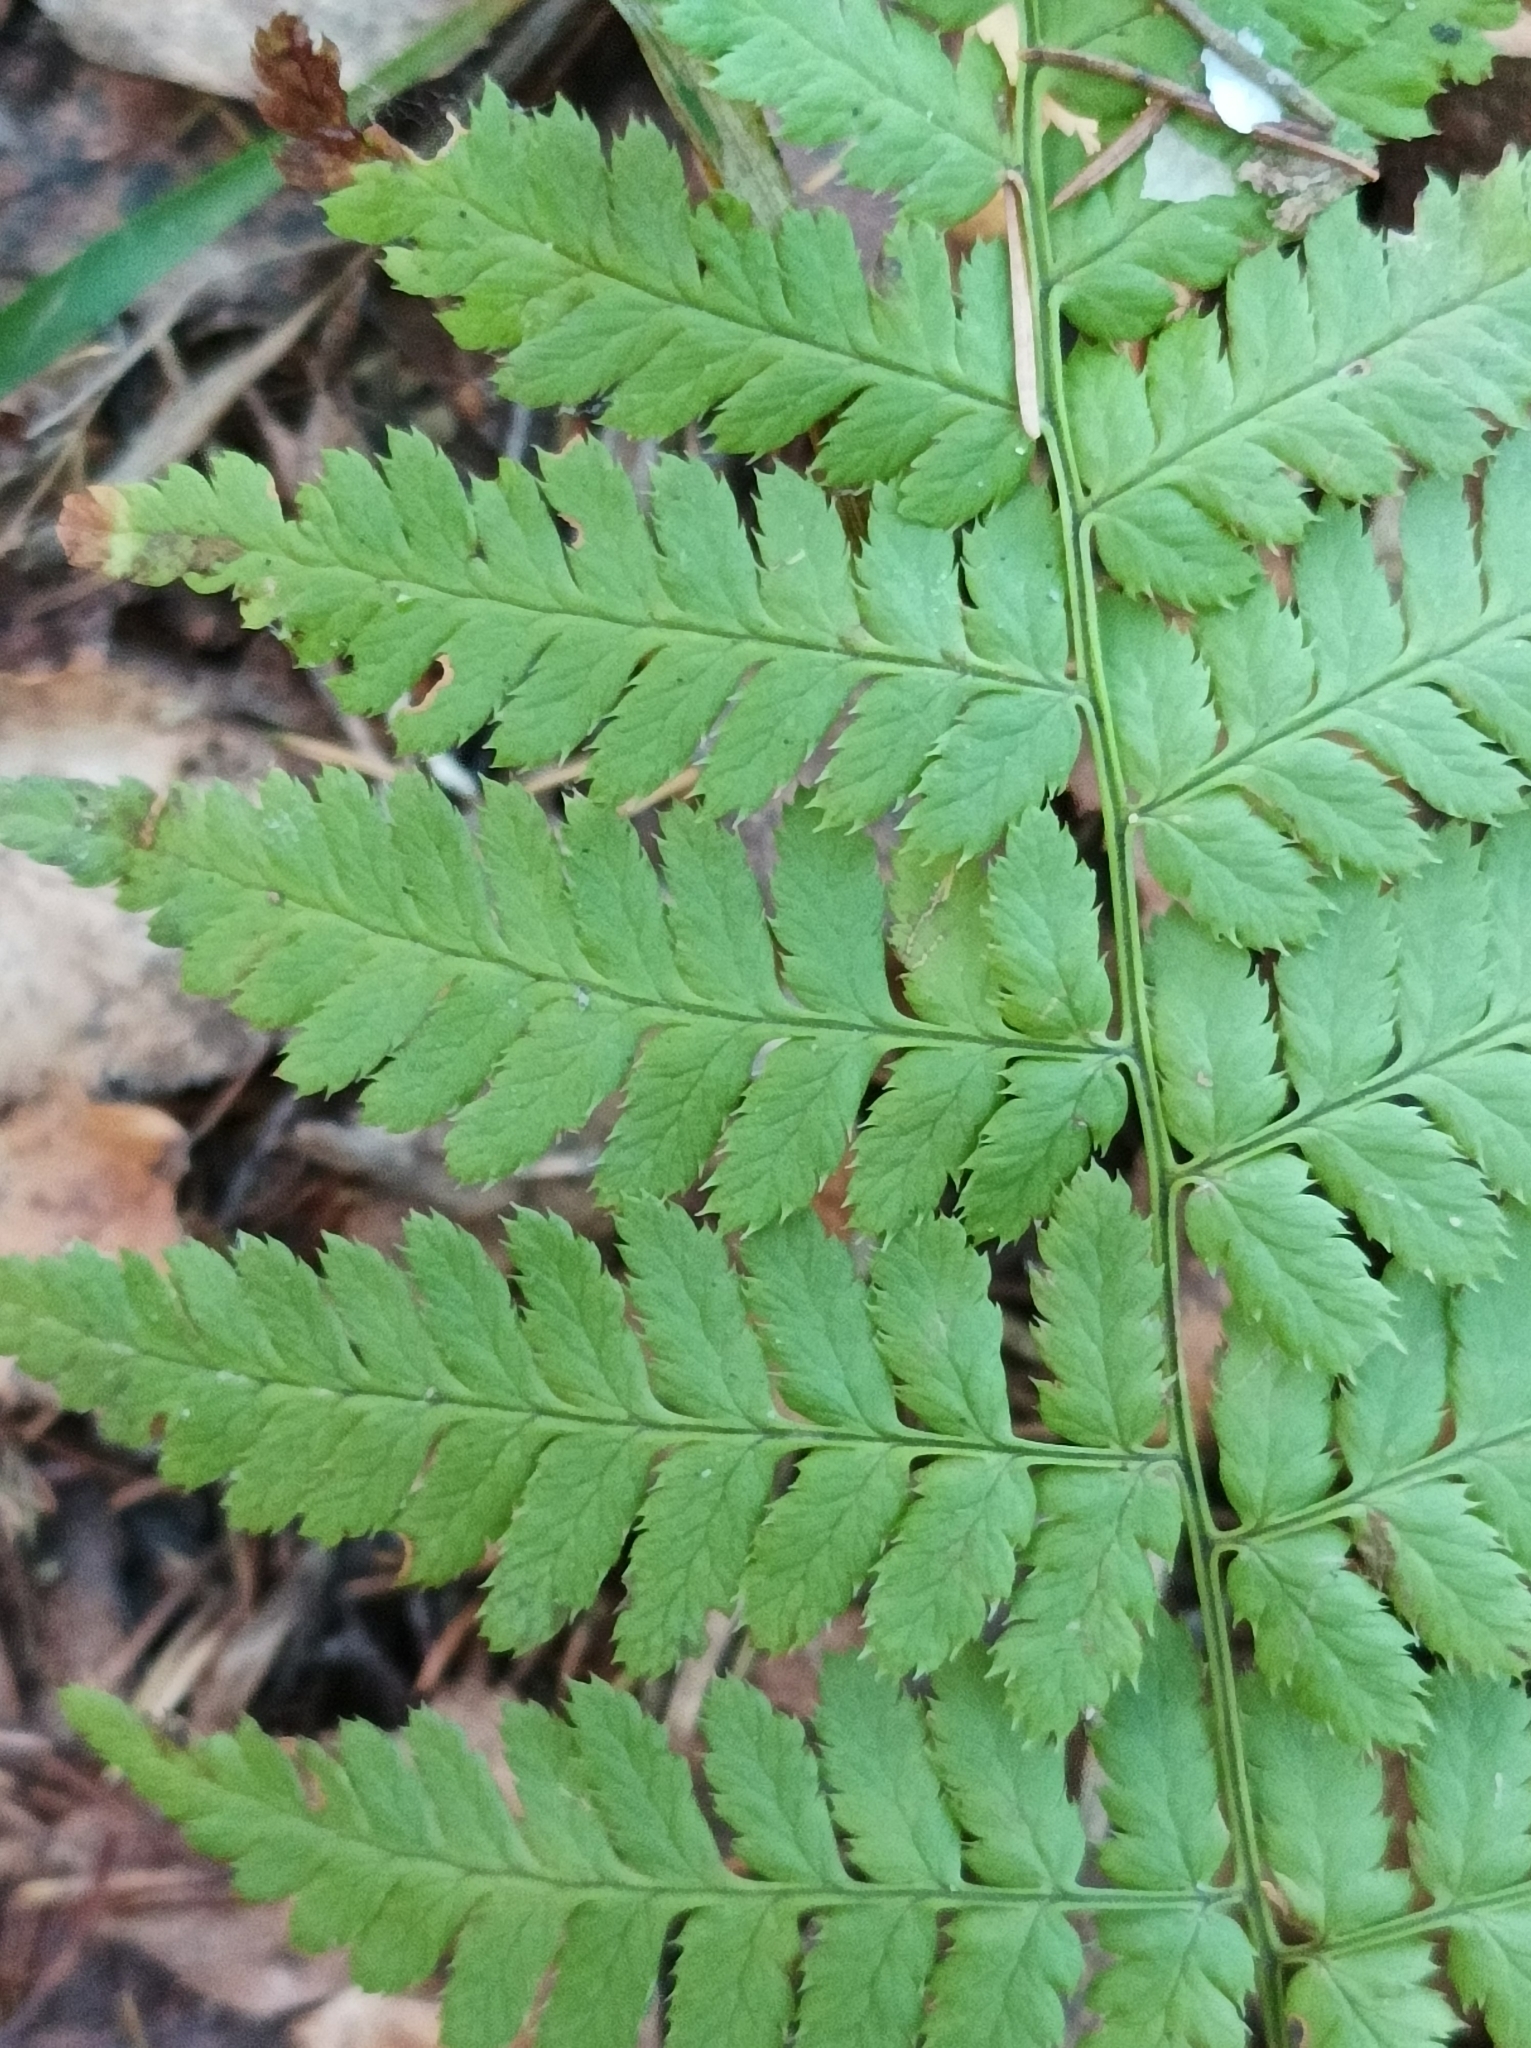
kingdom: Plantae
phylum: Tracheophyta
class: Polypodiopsida
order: Polypodiales
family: Dryopteridaceae
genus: Dryopteris
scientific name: Dryopteris carthusiana
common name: Narrow buckler-fern
